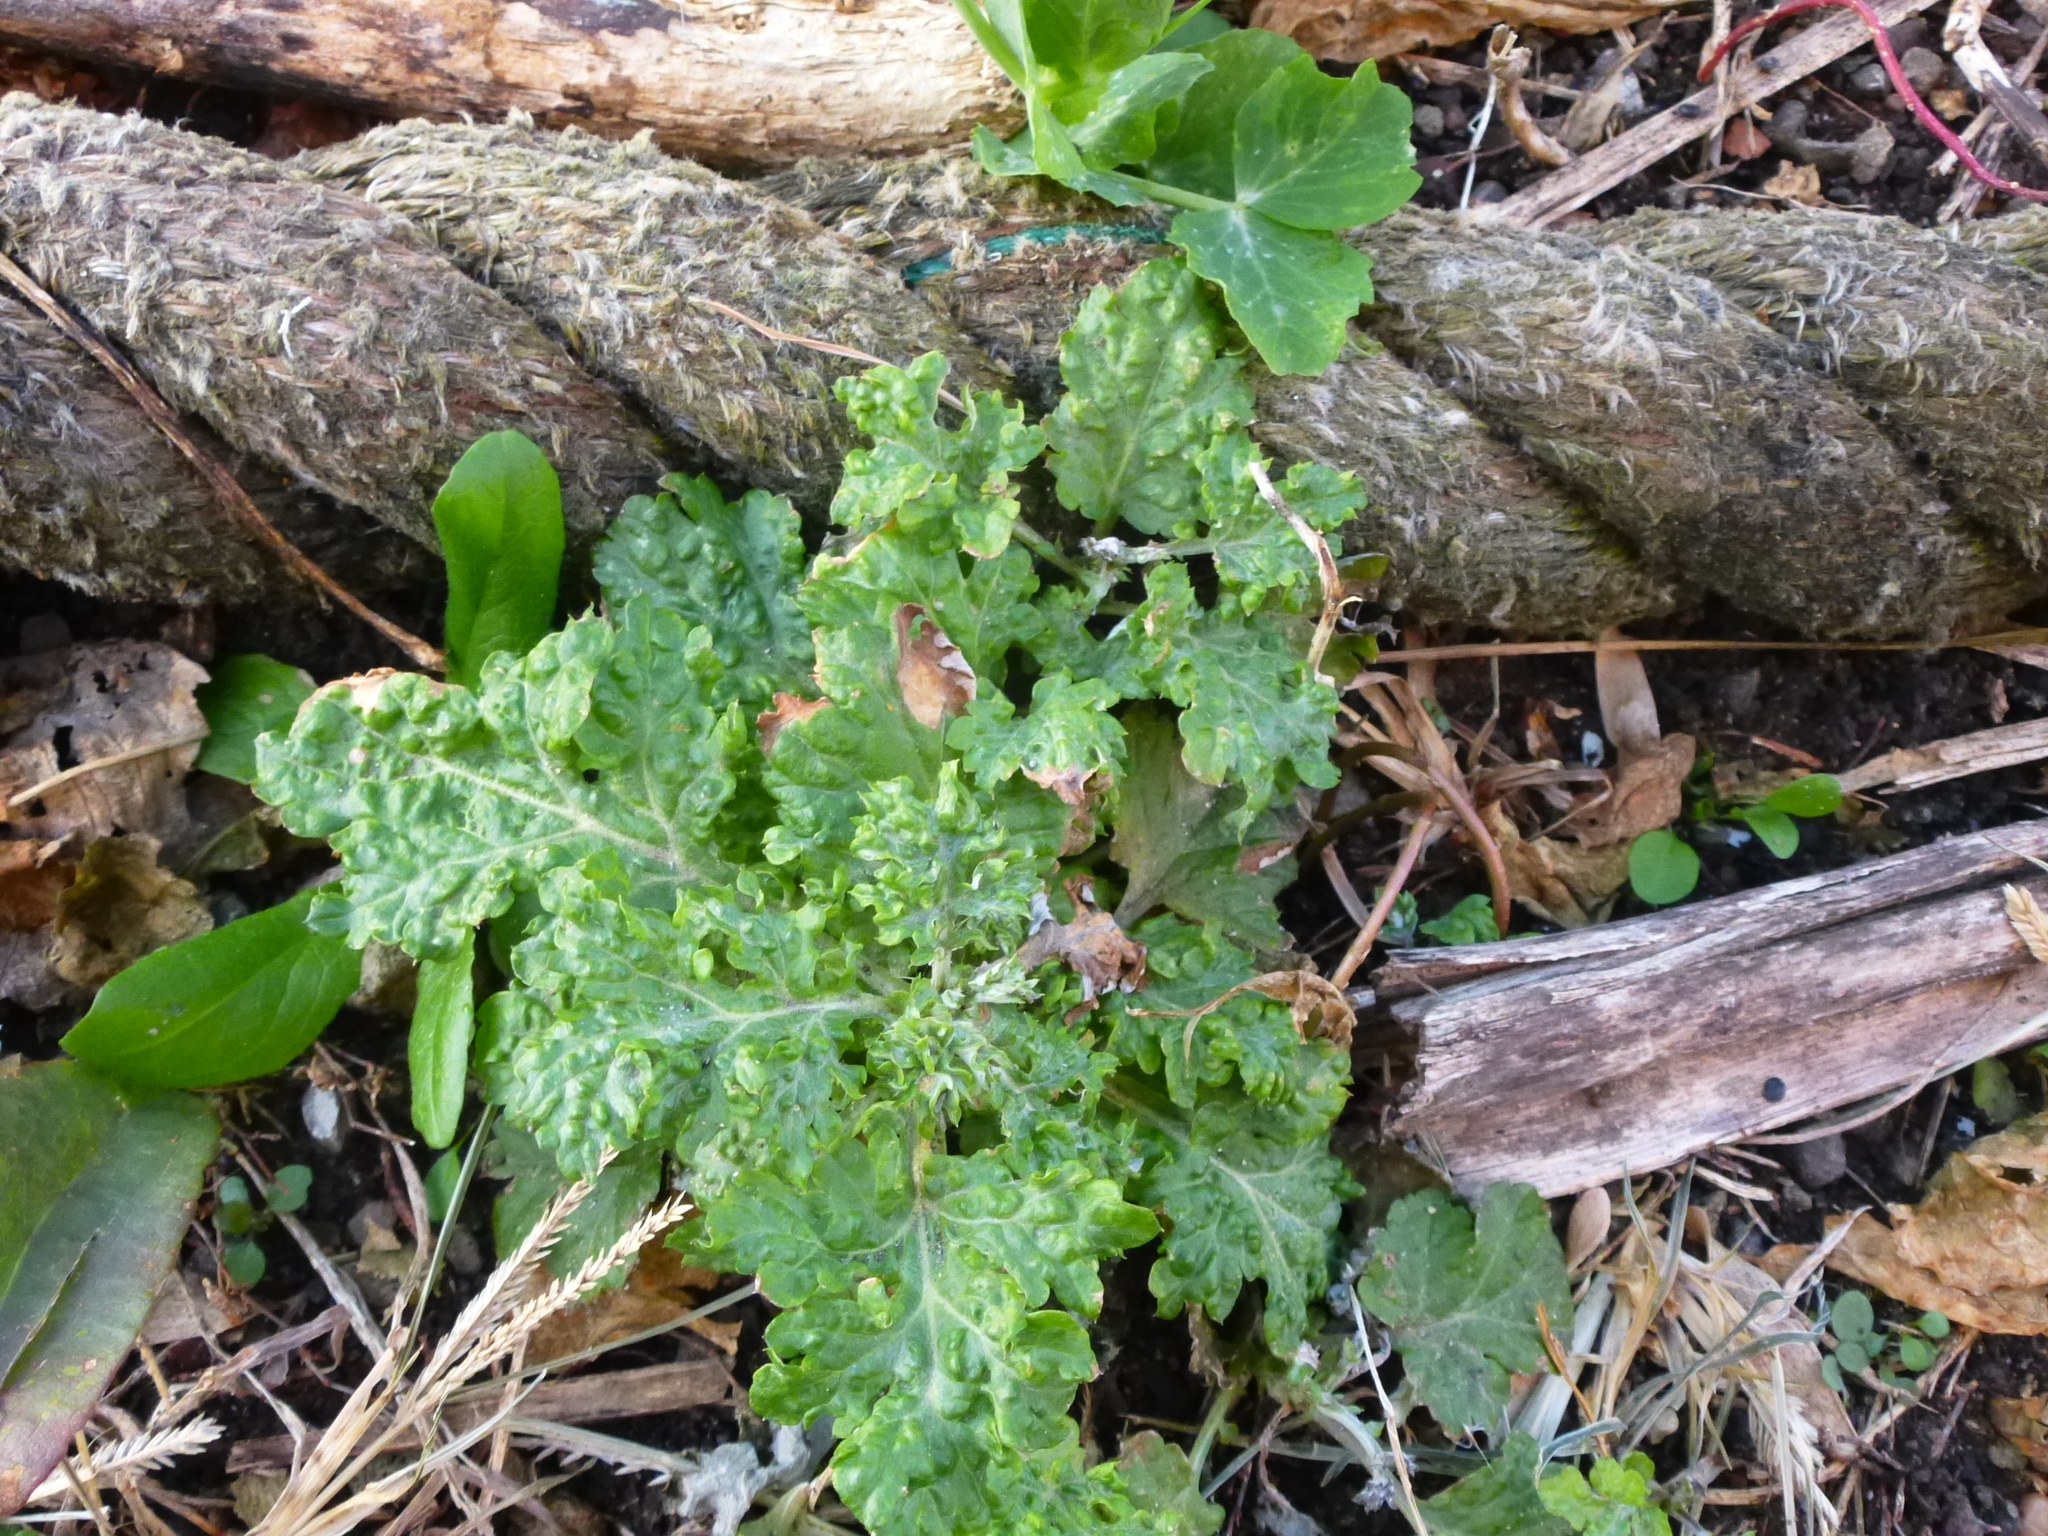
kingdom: Plantae
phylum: Tracheophyta
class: Magnoliopsida
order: Asterales
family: Asteraceae
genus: Senecio
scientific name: Senecio vulgaris
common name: Old-man-in-the-spring
